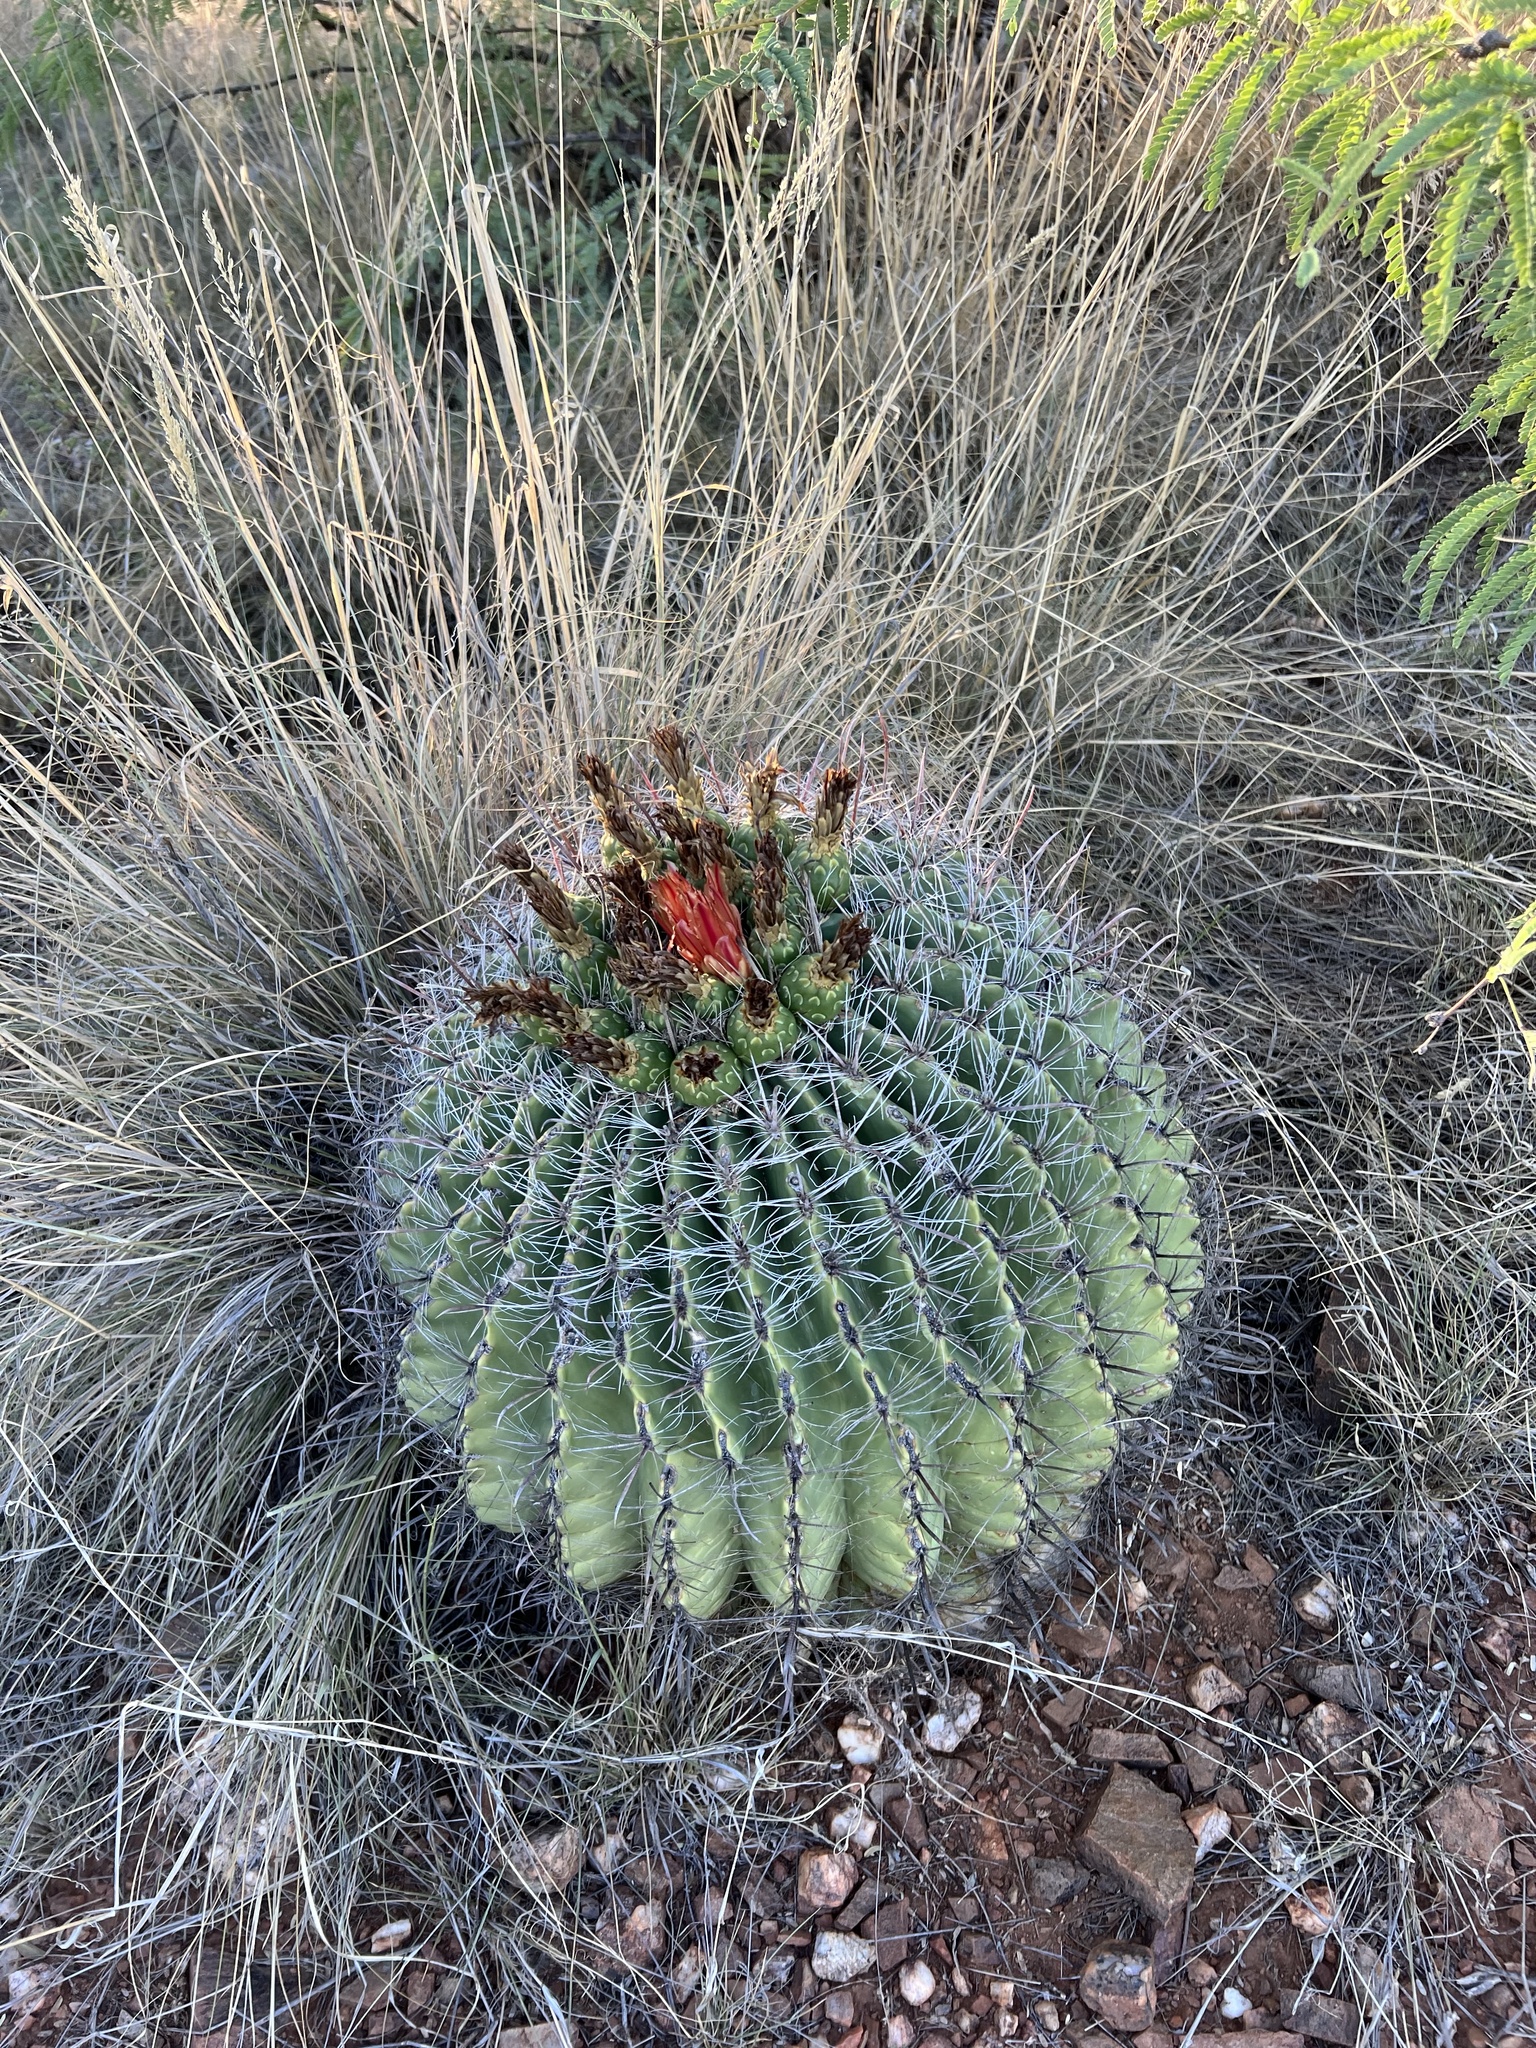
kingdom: Plantae
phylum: Tracheophyta
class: Magnoliopsida
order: Caryophyllales
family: Cactaceae
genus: Ferocactus
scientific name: Ferocactus wislizeni
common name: Candy barrel cactus
